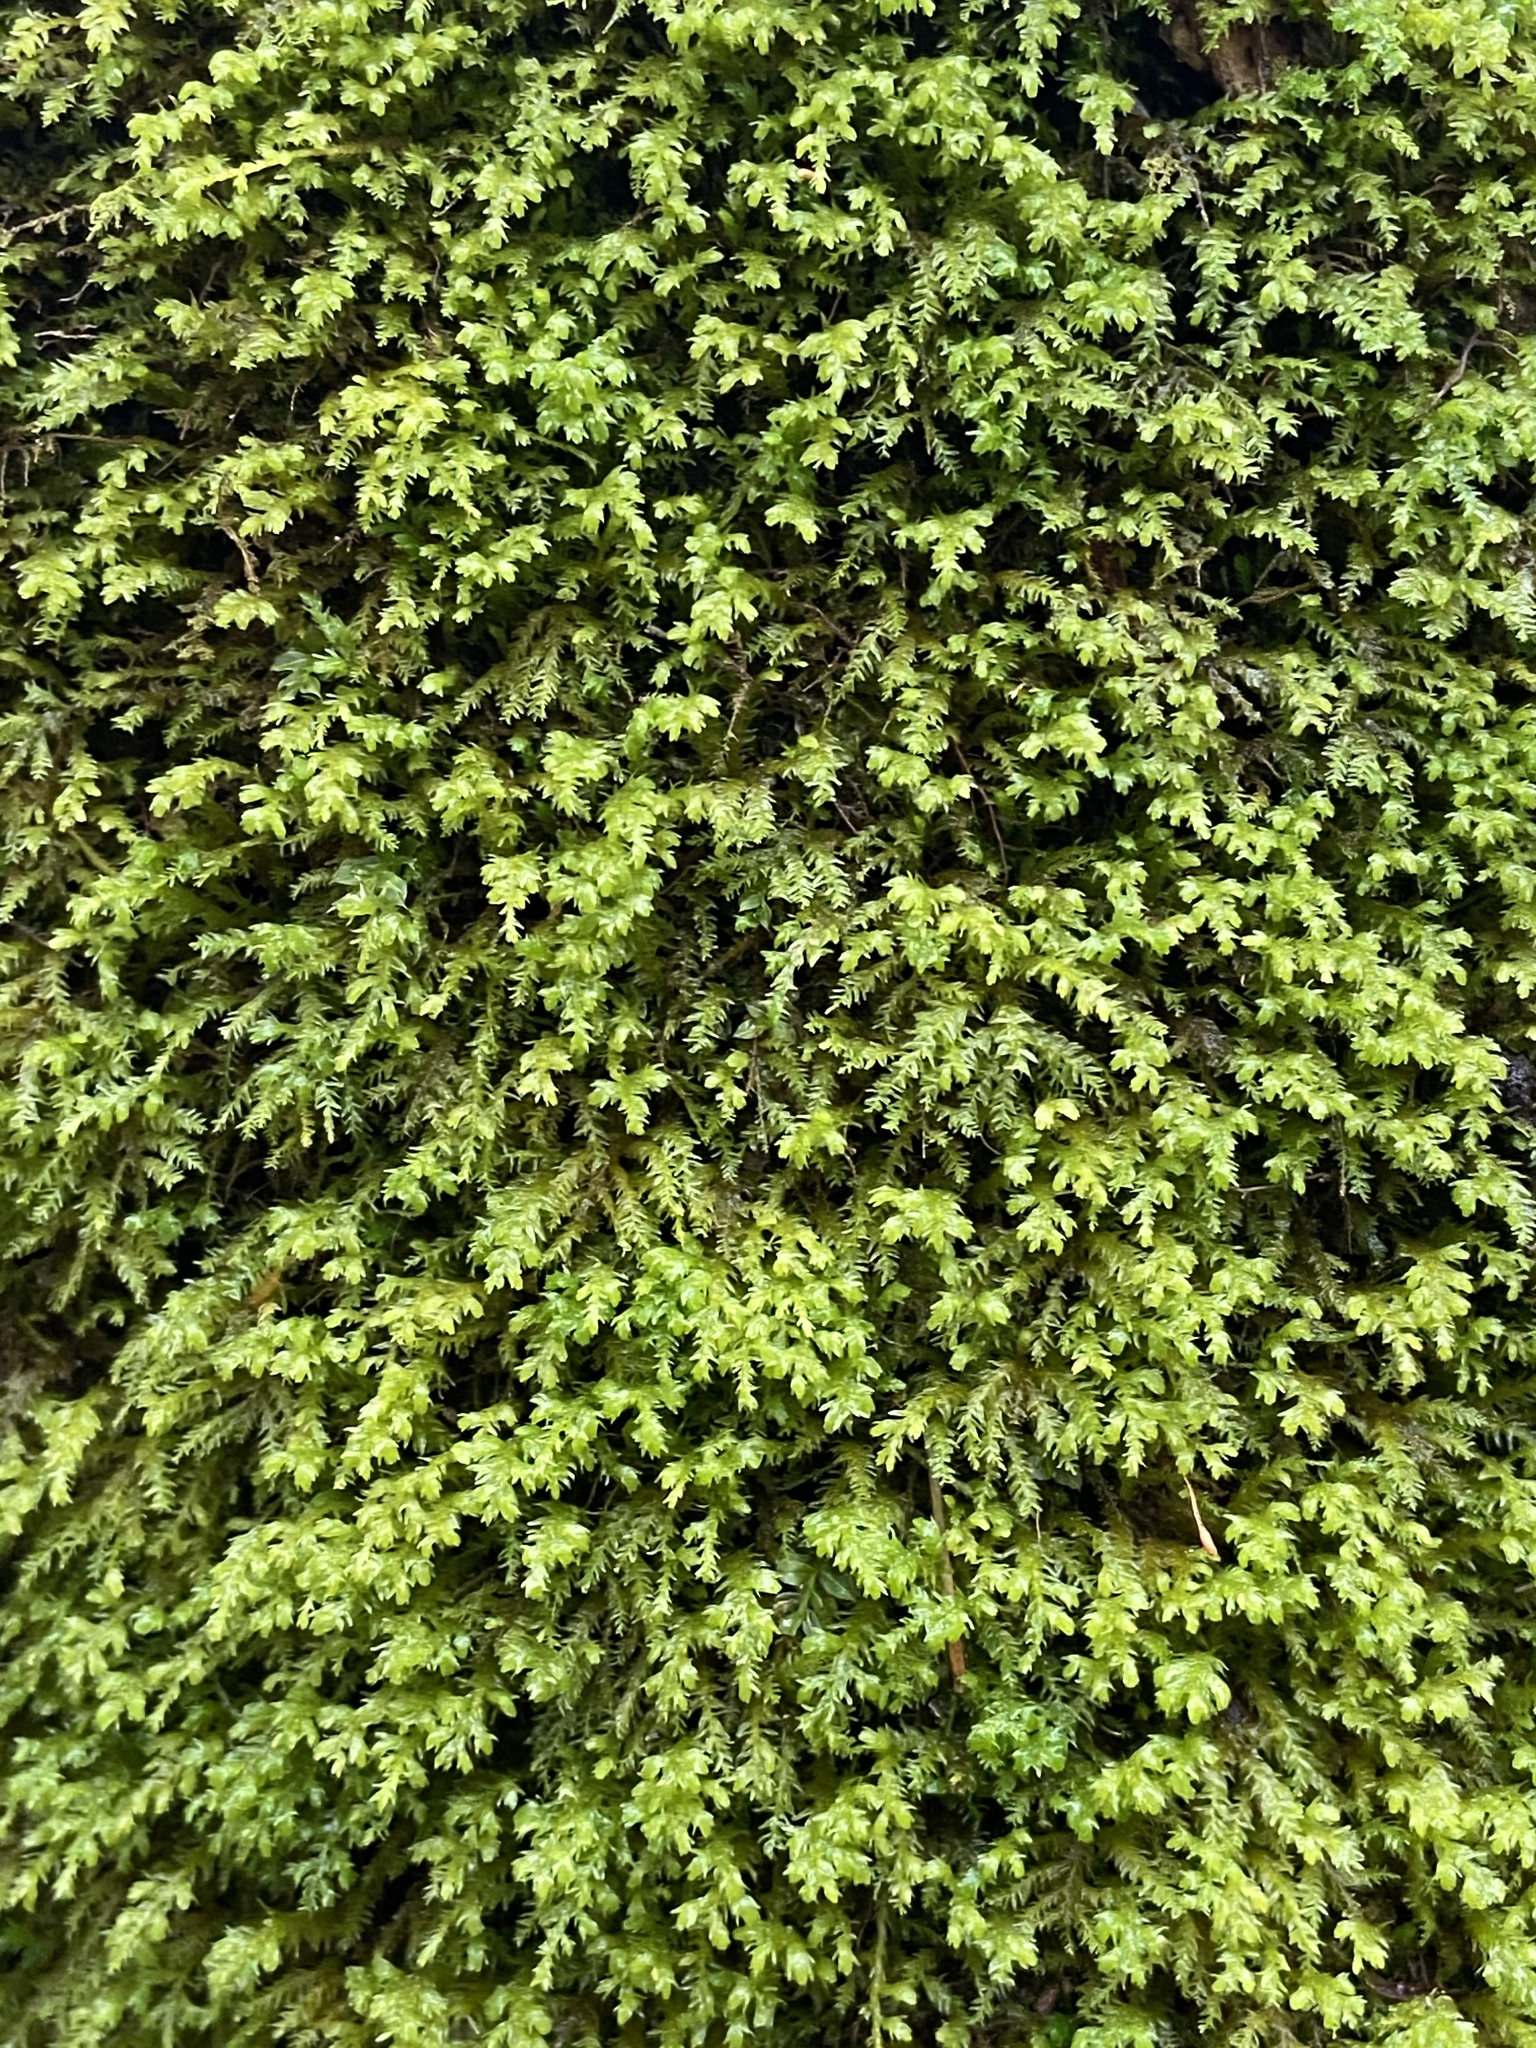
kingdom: Plantae
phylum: Bryophyta
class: Bryopsida
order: Hypnales
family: Neckeraceae
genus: Pseudanomodon
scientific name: Pseudanomodon attenuatus
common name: Tree-skirt moss
